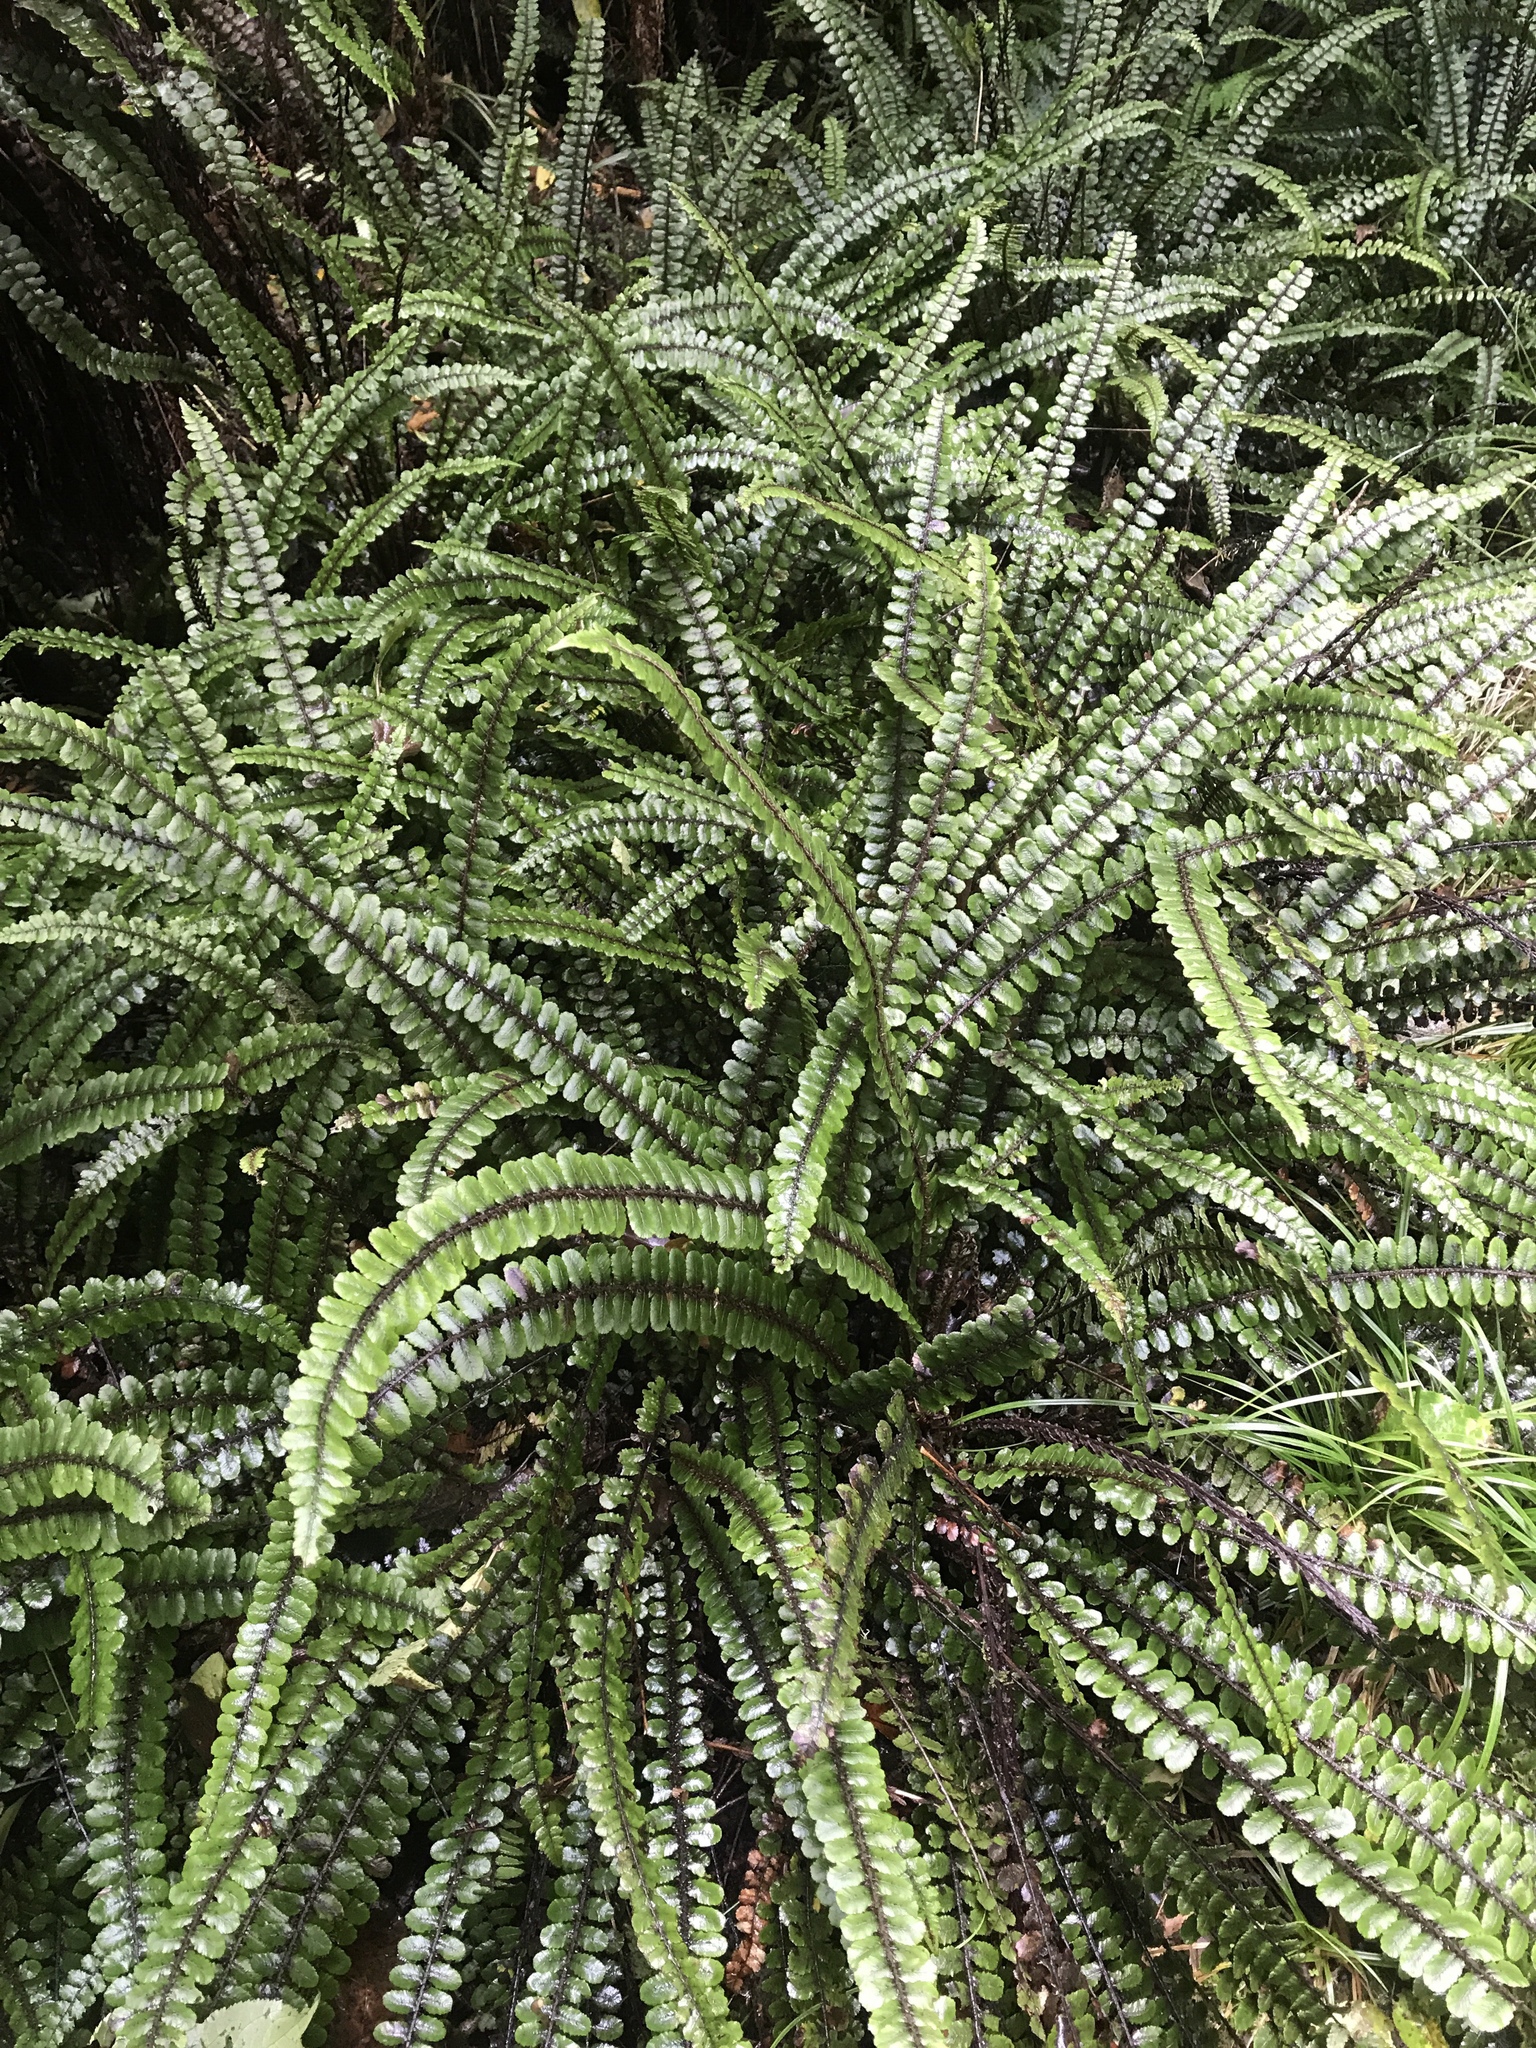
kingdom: Plantae
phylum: Tracheophyta
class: Polypodiopsida
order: Polypodiales
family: Blechnaceae
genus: Cranfillia
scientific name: Cranfillia fluviatilis
